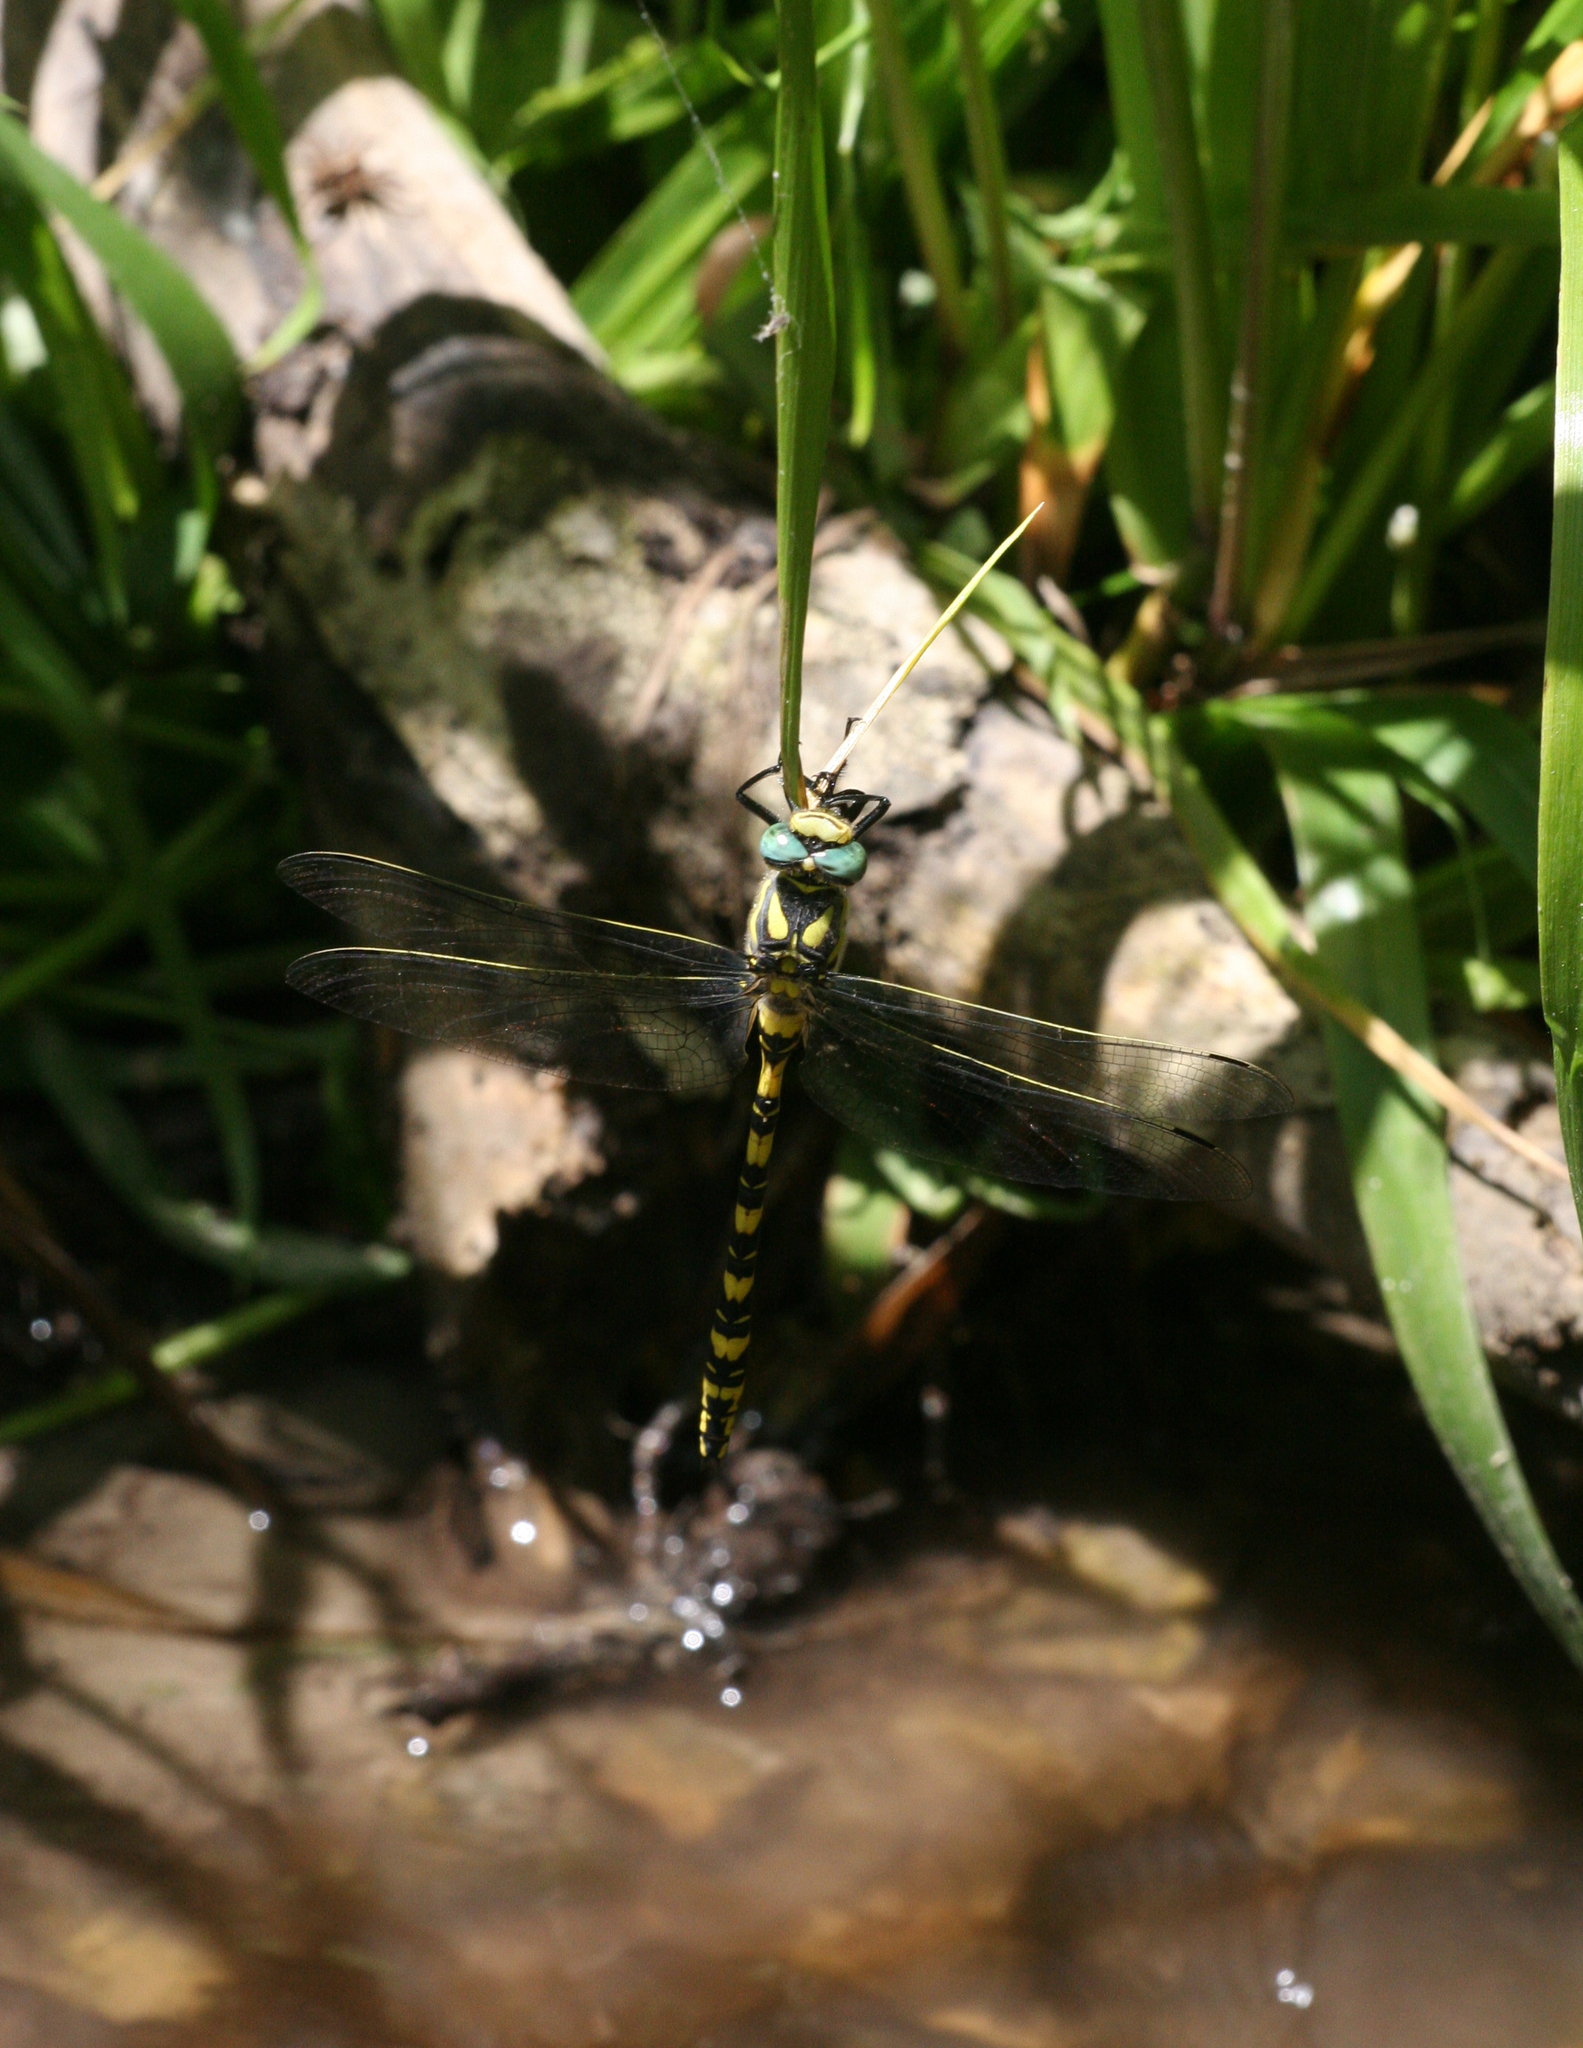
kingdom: Animalia
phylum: Arthropoda
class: Insecta
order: Odonata
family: Cordulegastridae
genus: Cordulegaster
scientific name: Cordulegaster charpentieri
